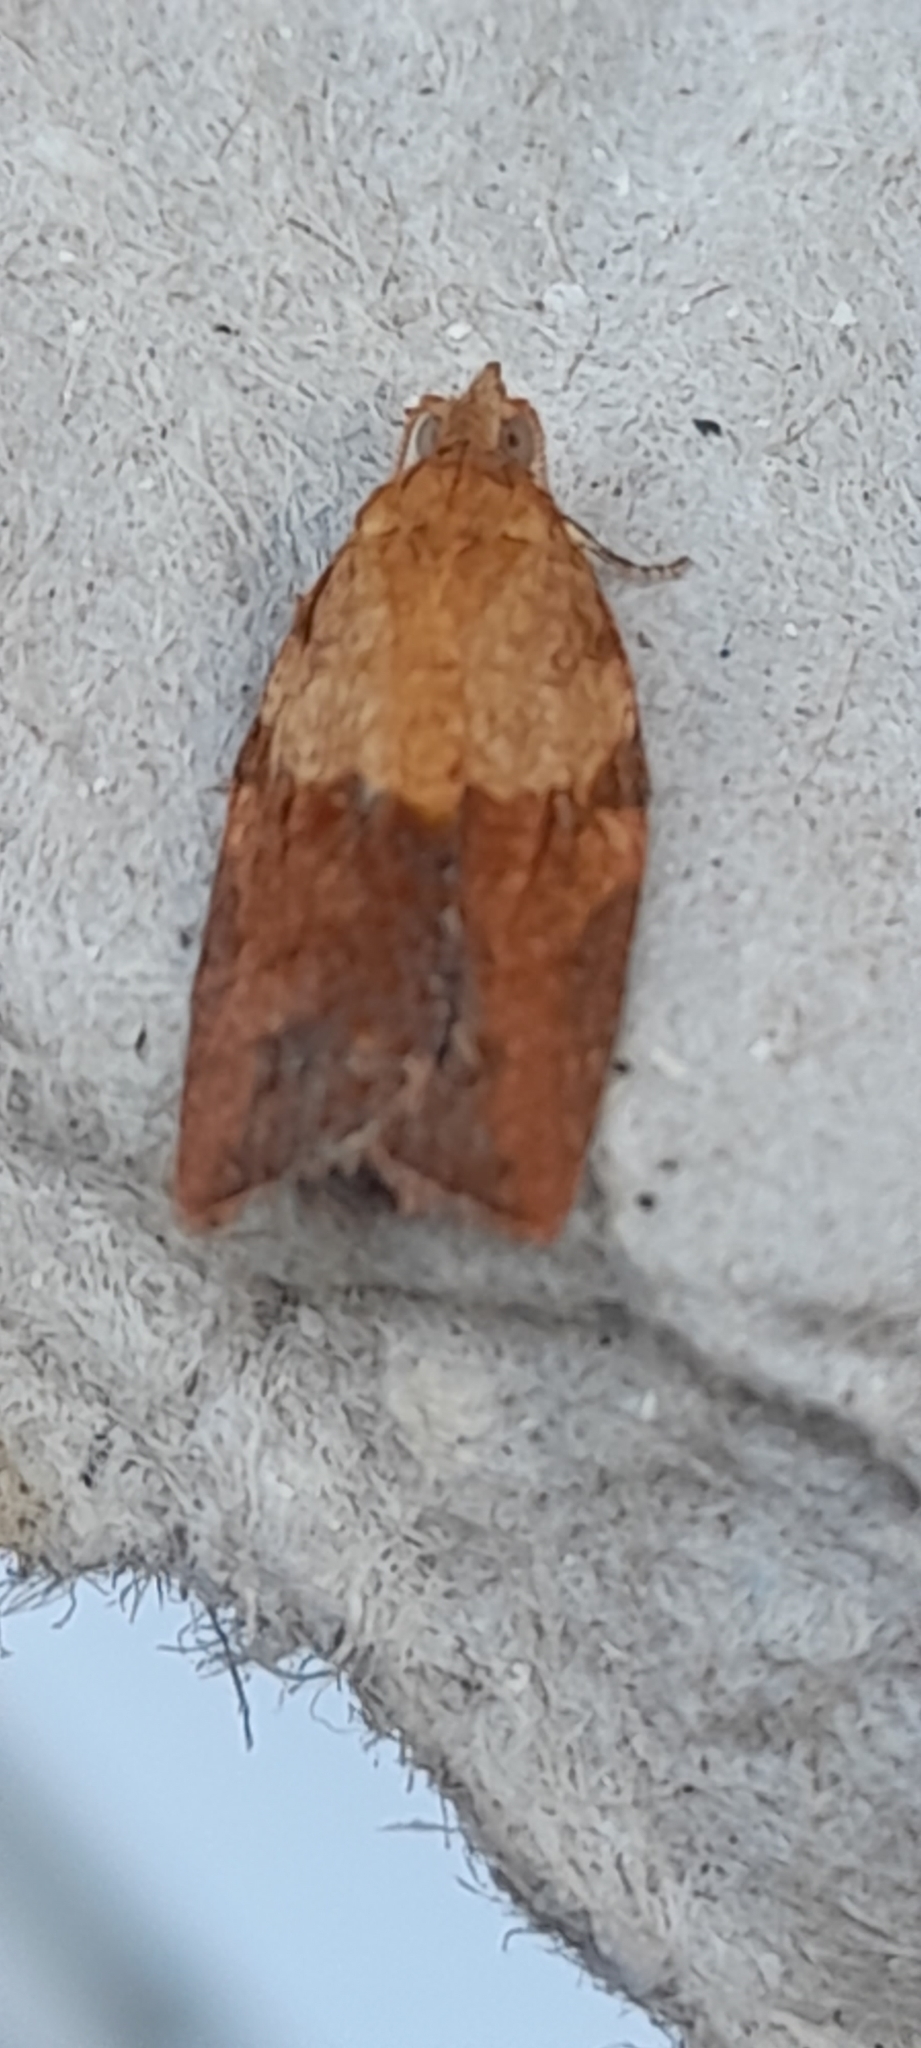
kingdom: Animalia
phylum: Arthropoda
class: Insecta
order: Lepidoptera
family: Tortricidae
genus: Epiphyas
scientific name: Epiphyas postvittana
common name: Light brown apple moth
